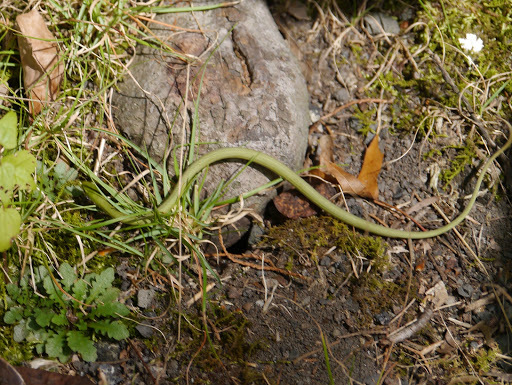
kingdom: Animalia
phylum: Chordata
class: Squamata
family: Colubridae
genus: Opheodrys
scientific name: Opheodrys aestivus
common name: Rough greensnake
